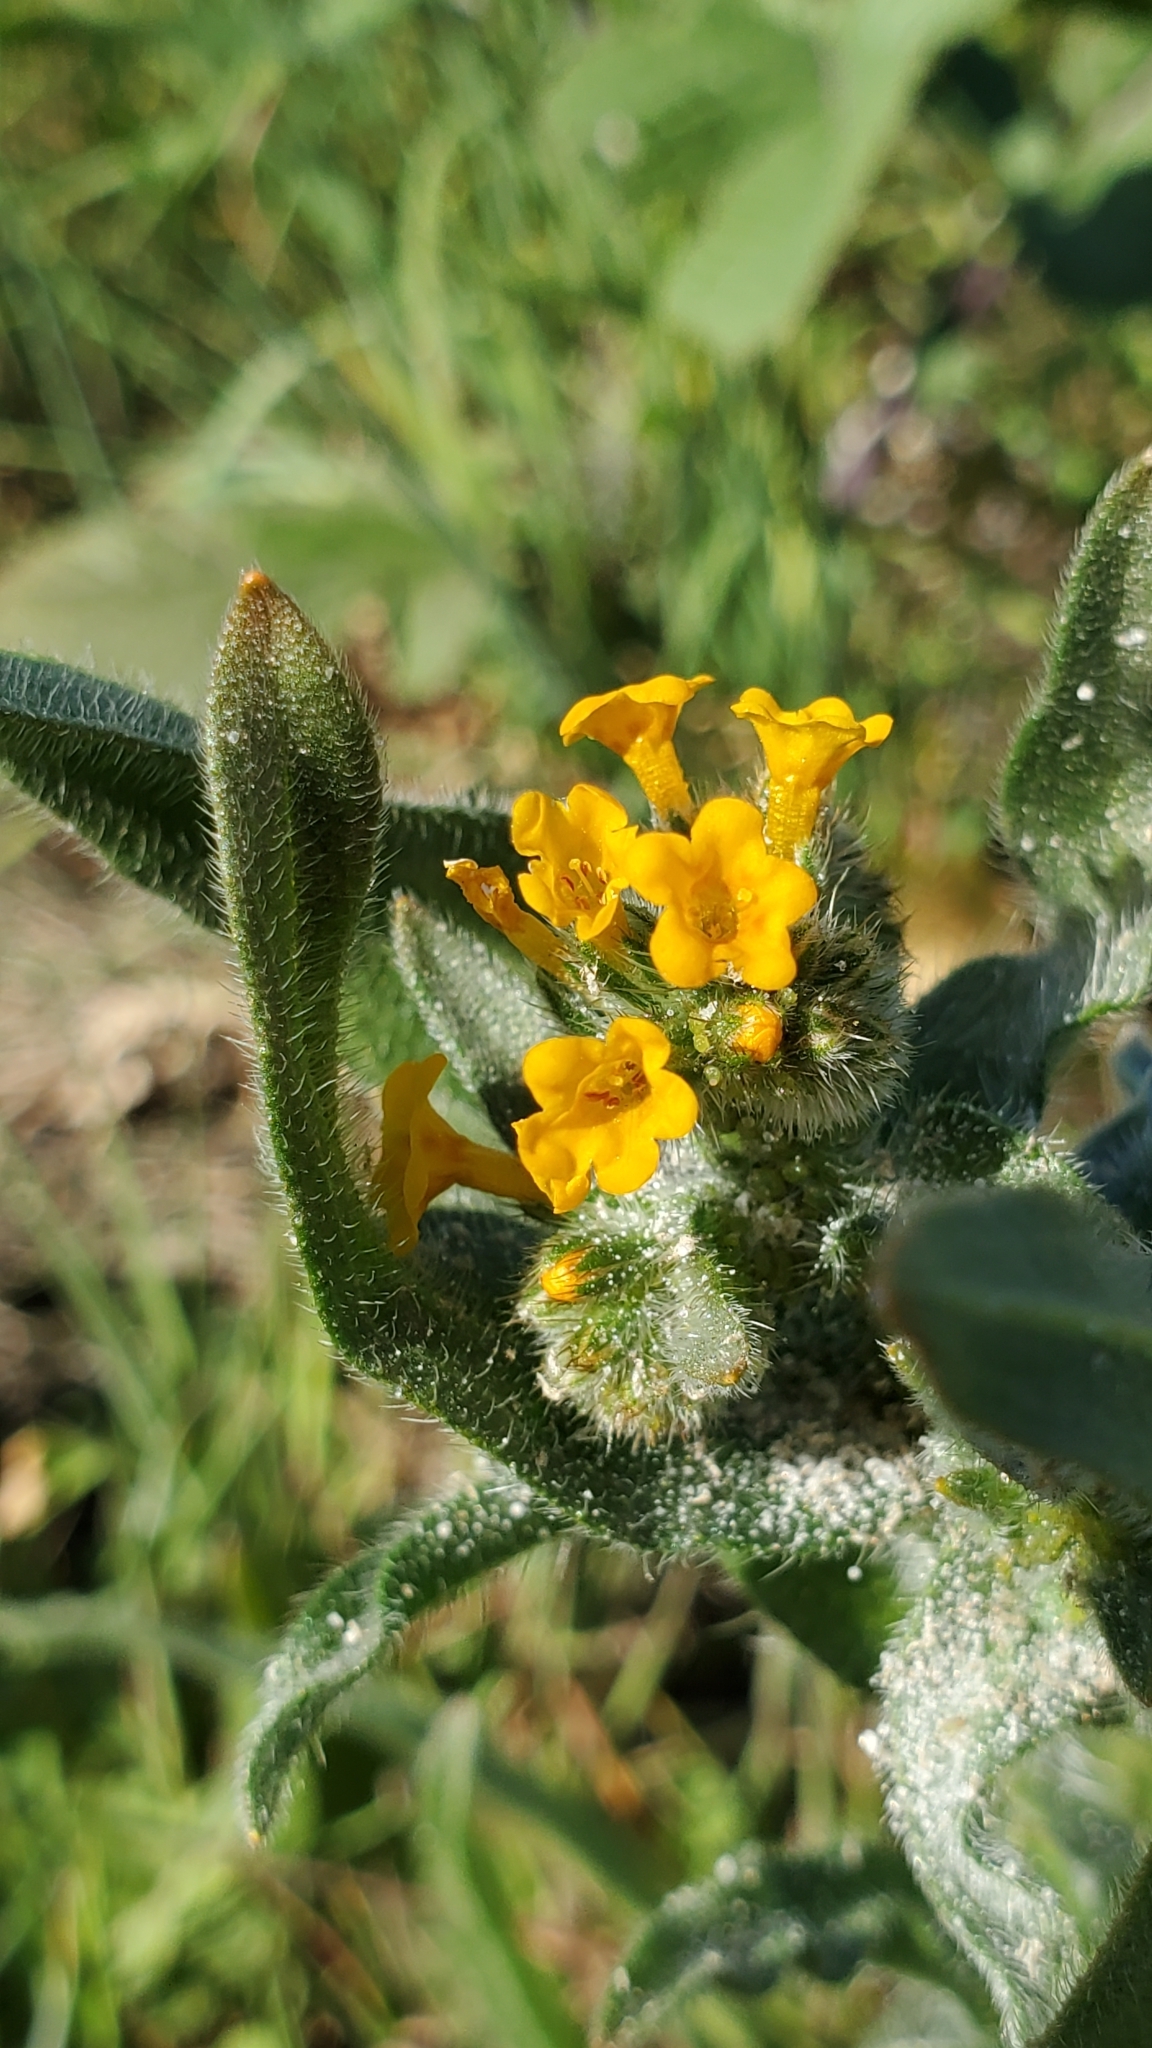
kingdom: Plantae
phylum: Tracheophyta
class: Magnoliopsida
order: Boraginales
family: Boraginaceae
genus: Amsinckia
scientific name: Amsinckia menziesii
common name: Menzies' fiddleneck
